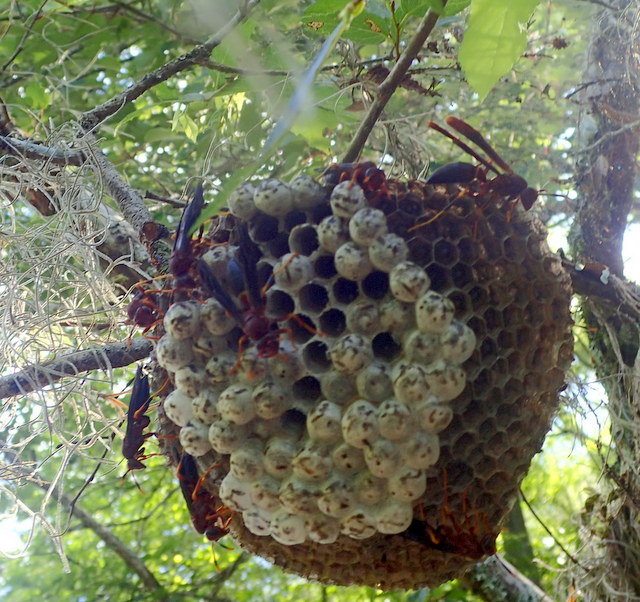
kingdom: Animalia
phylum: Arthropoda
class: Insecta
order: Hymenoptera
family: Eumenidae
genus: Polistes
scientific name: Polistes annularis
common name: Ringed paper wasp
